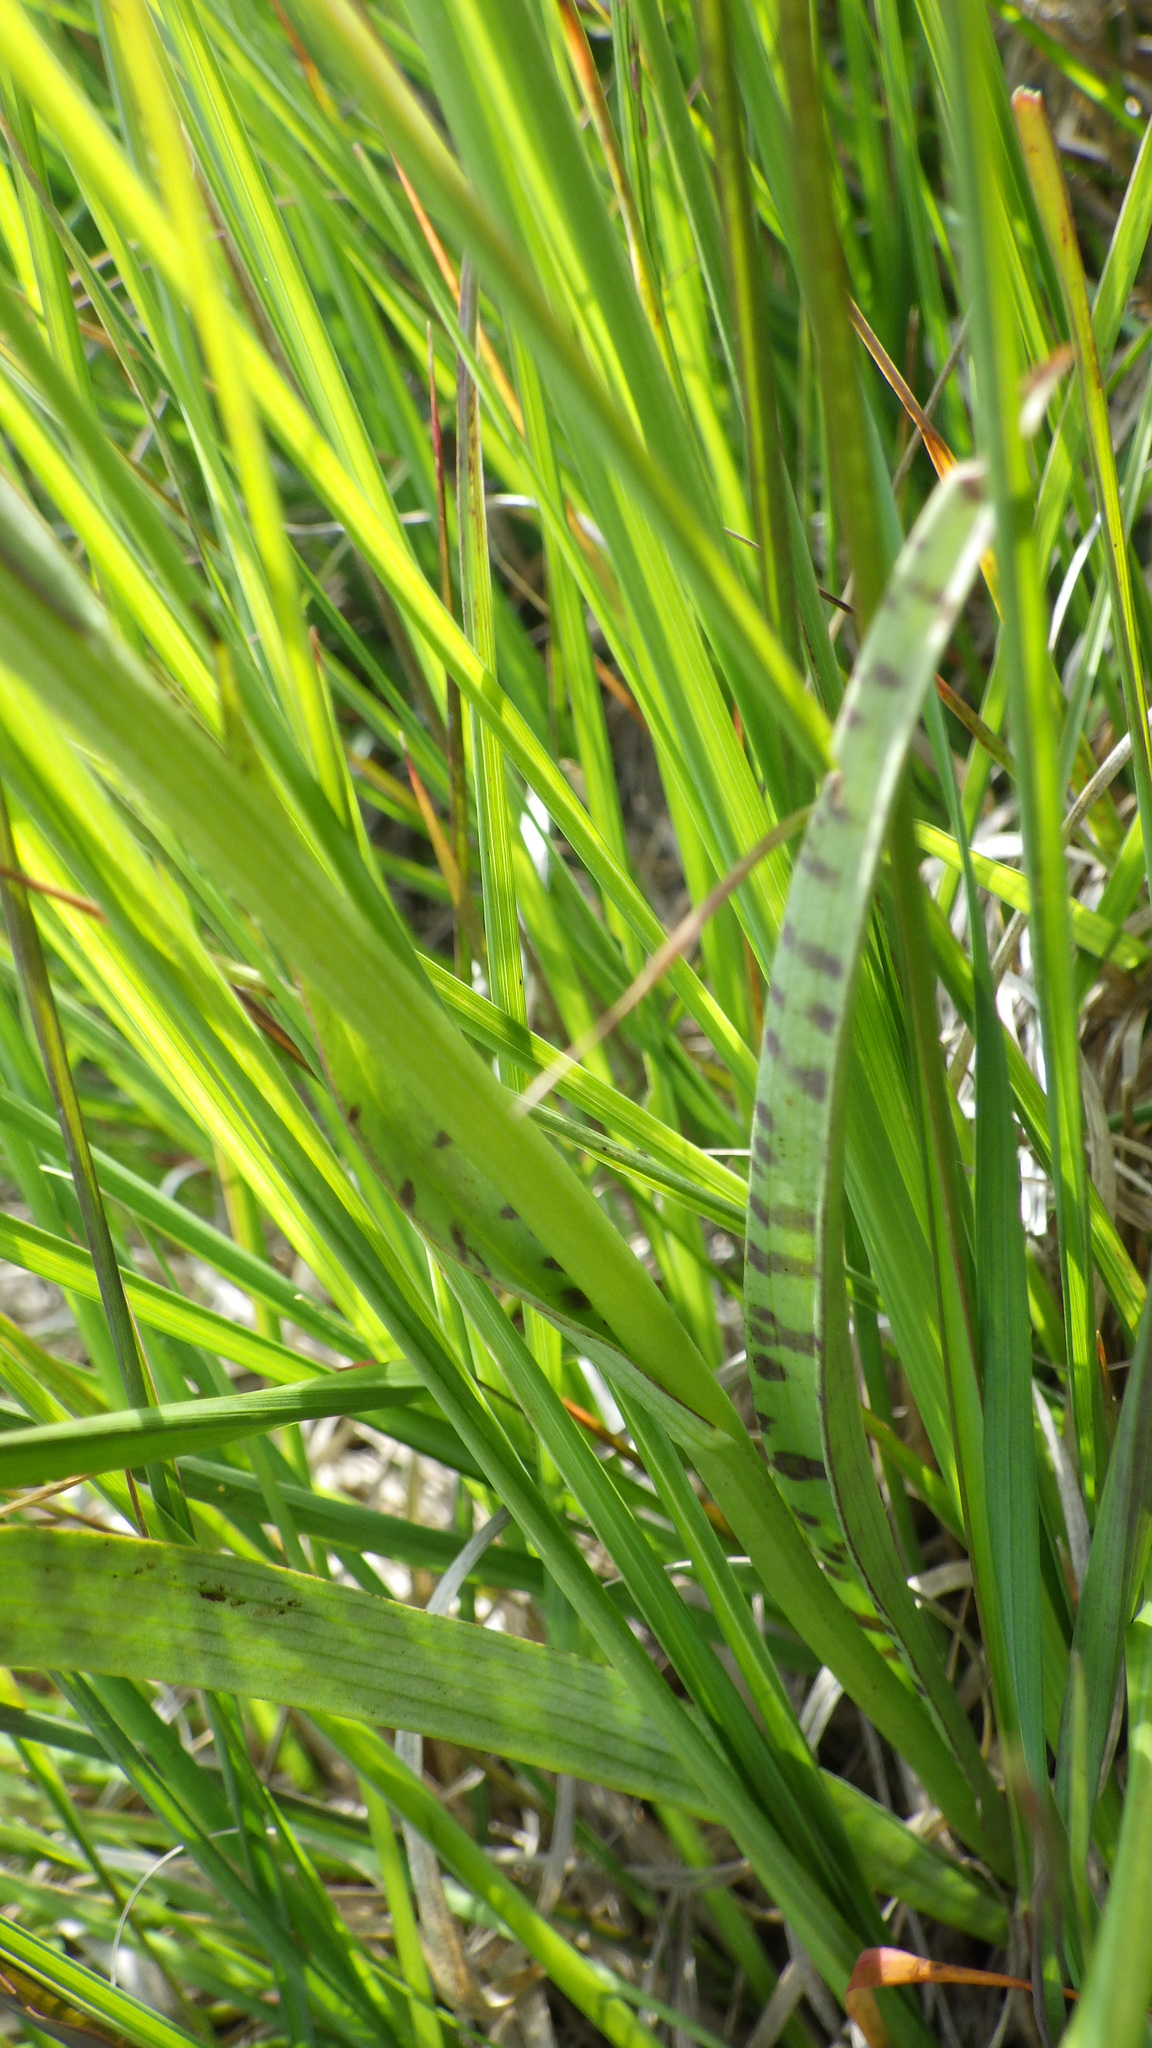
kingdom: Plantae
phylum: Tracheophyta
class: Liliopsida
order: Asparagales
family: Orchidaceae
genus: Dactylorhiza
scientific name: Dactylorhiza maculata
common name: Heath spotted-orchid
